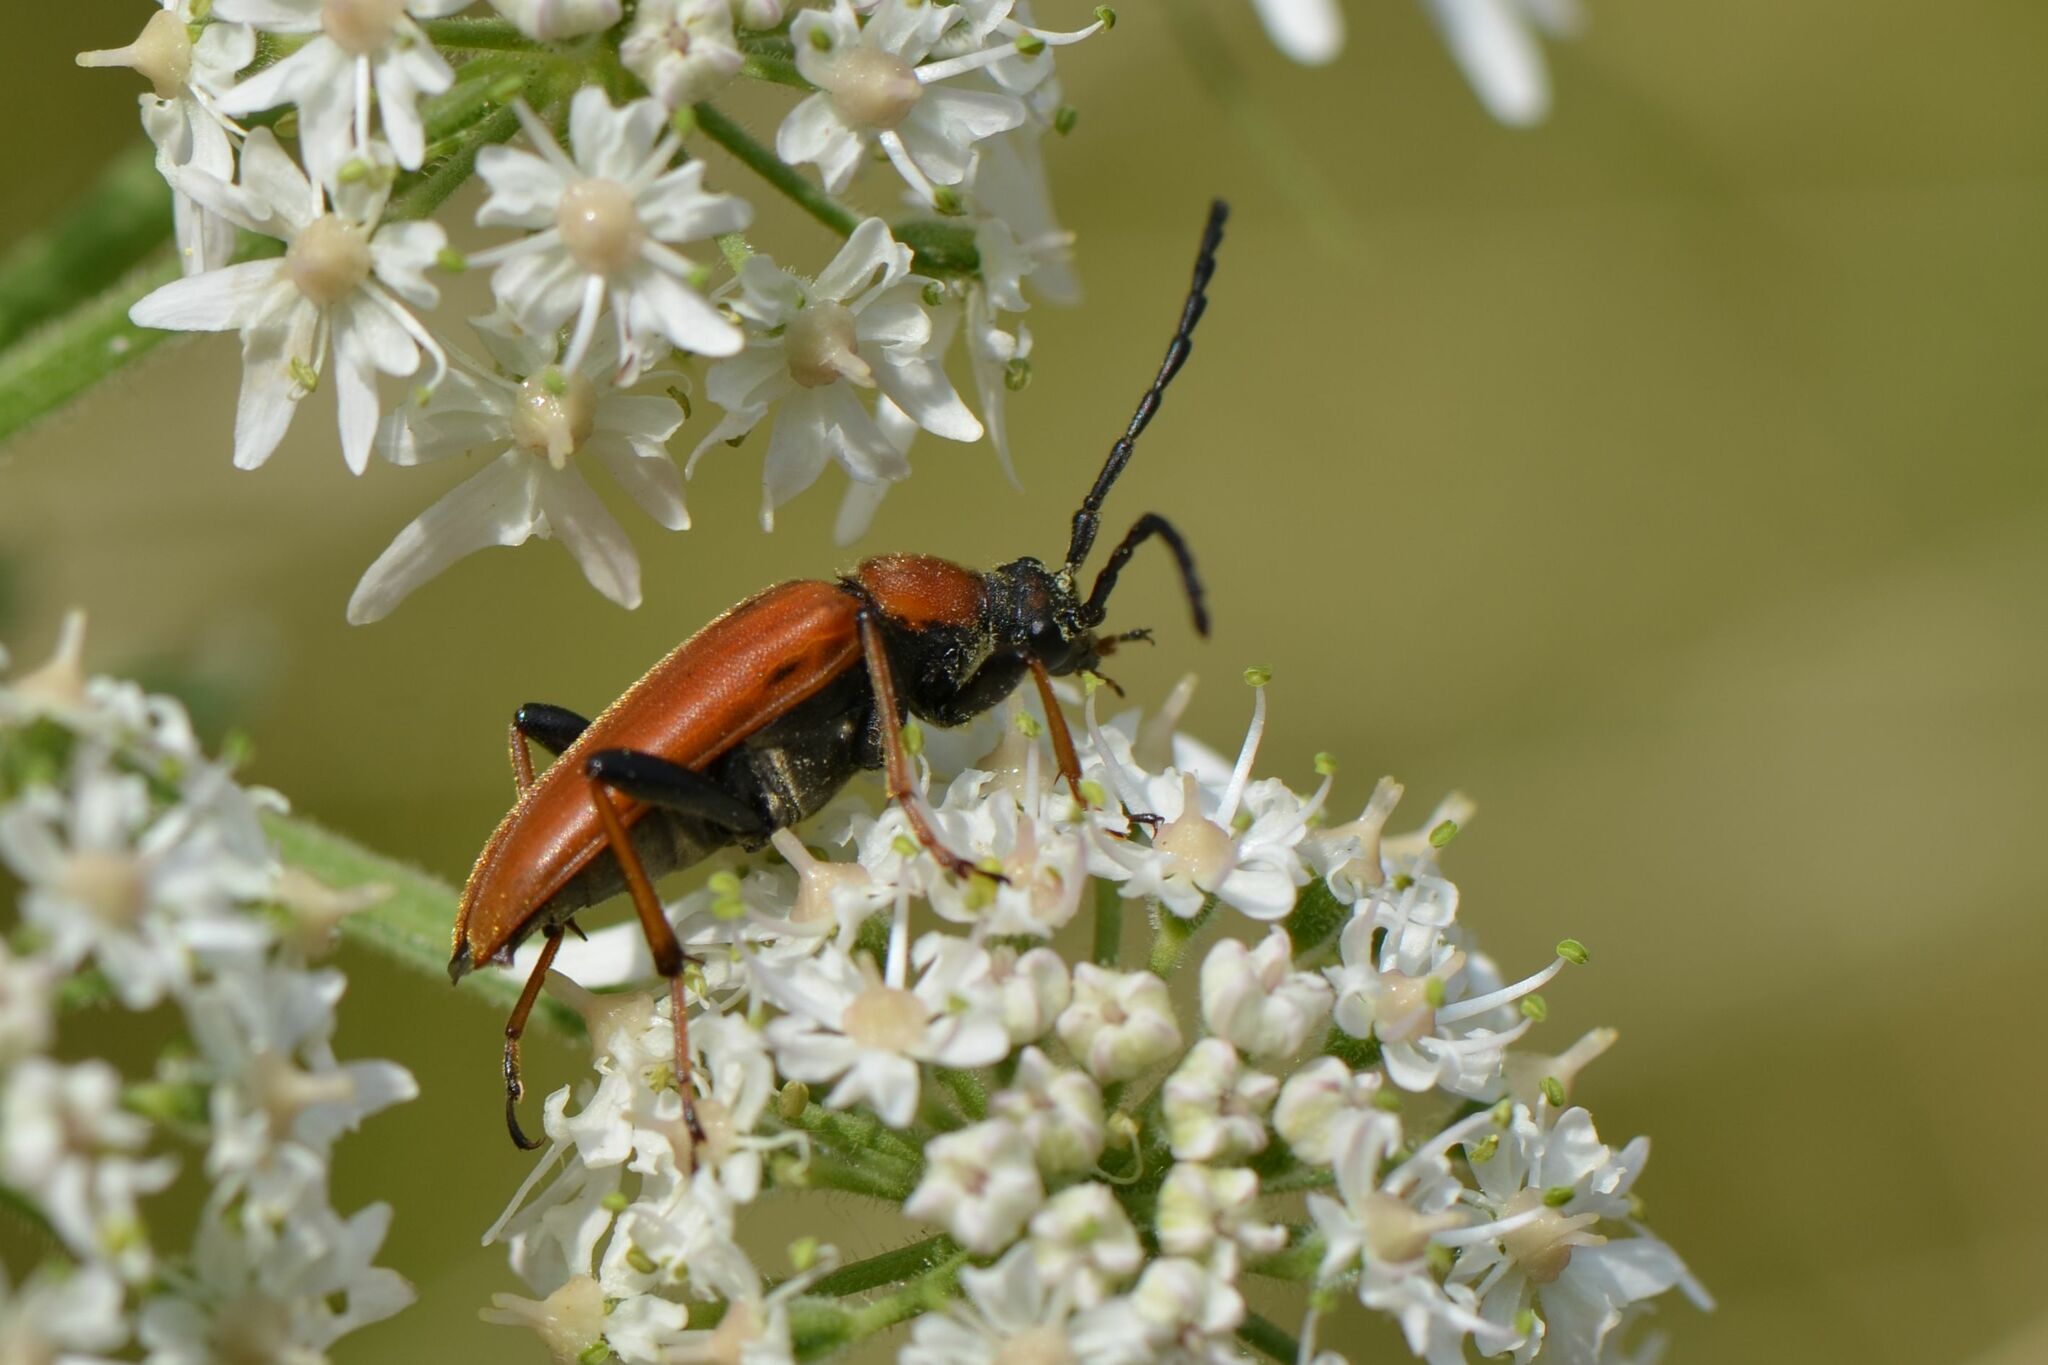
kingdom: Animalia
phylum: Arthropoda
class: Insecta
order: Coleoptera
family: Cerambycidae
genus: Stictoleptura
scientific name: Stictoleptura rubra
